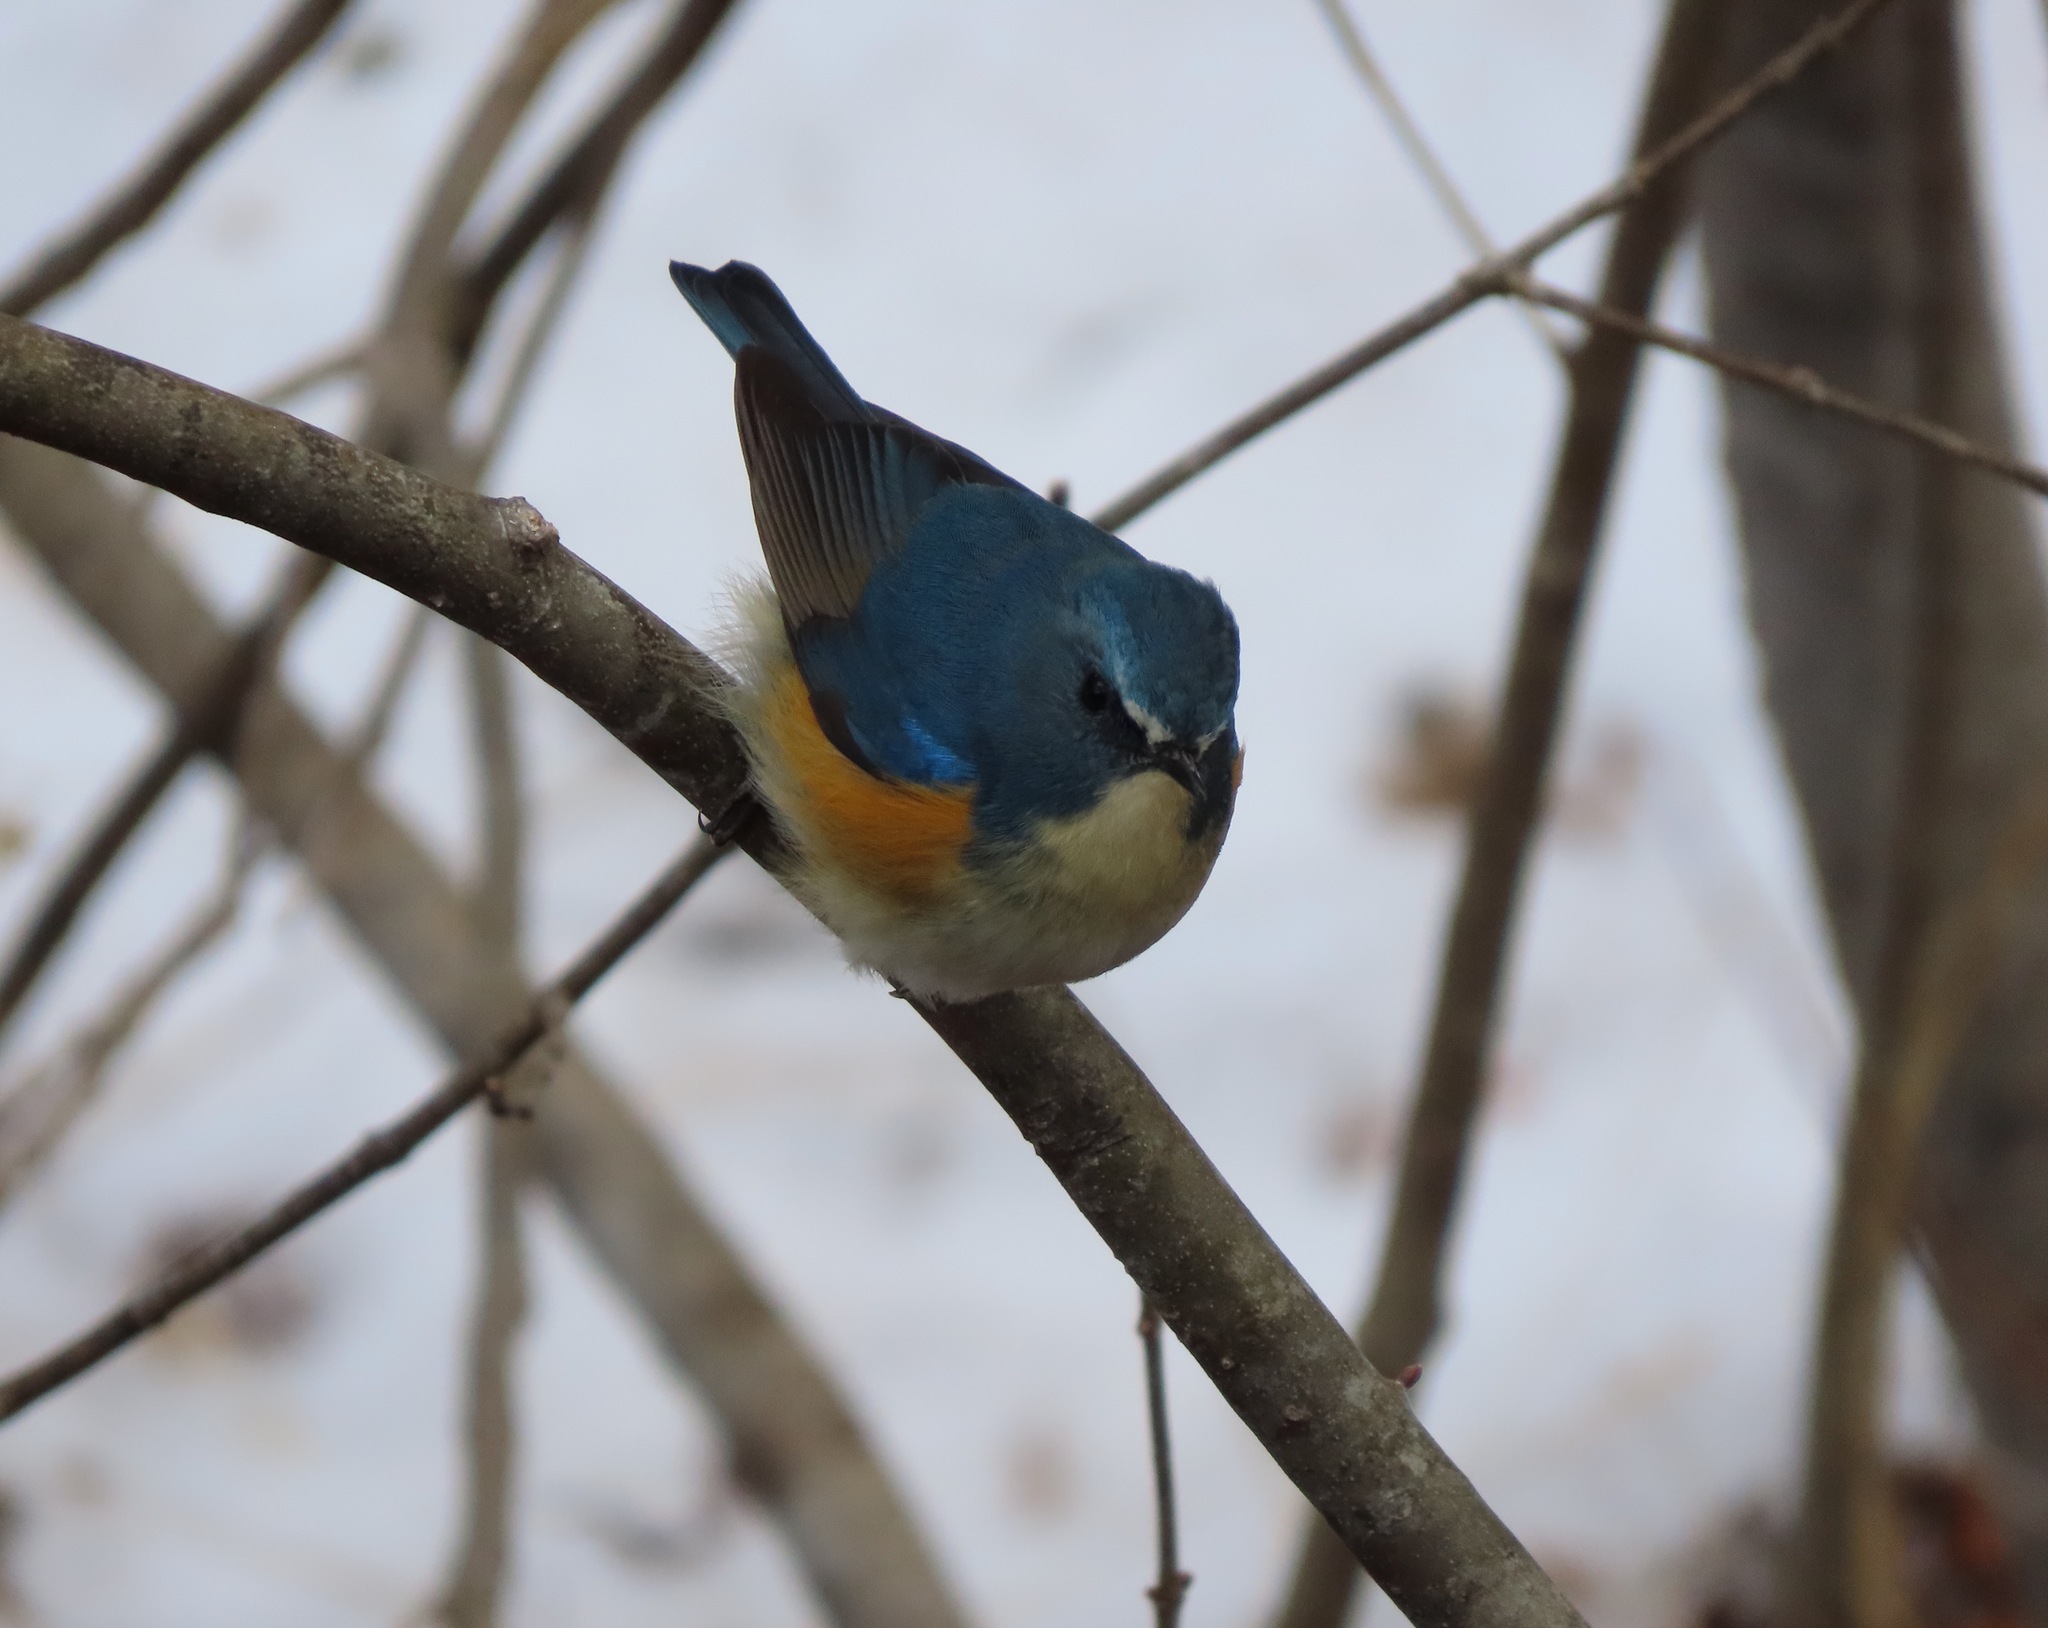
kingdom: Animalia
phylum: Chordata
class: Aves
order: Passeriformes
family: Muscicapidae
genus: Tarsiger
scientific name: Tarsiger cyanurus
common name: Red-flanked bluetail
